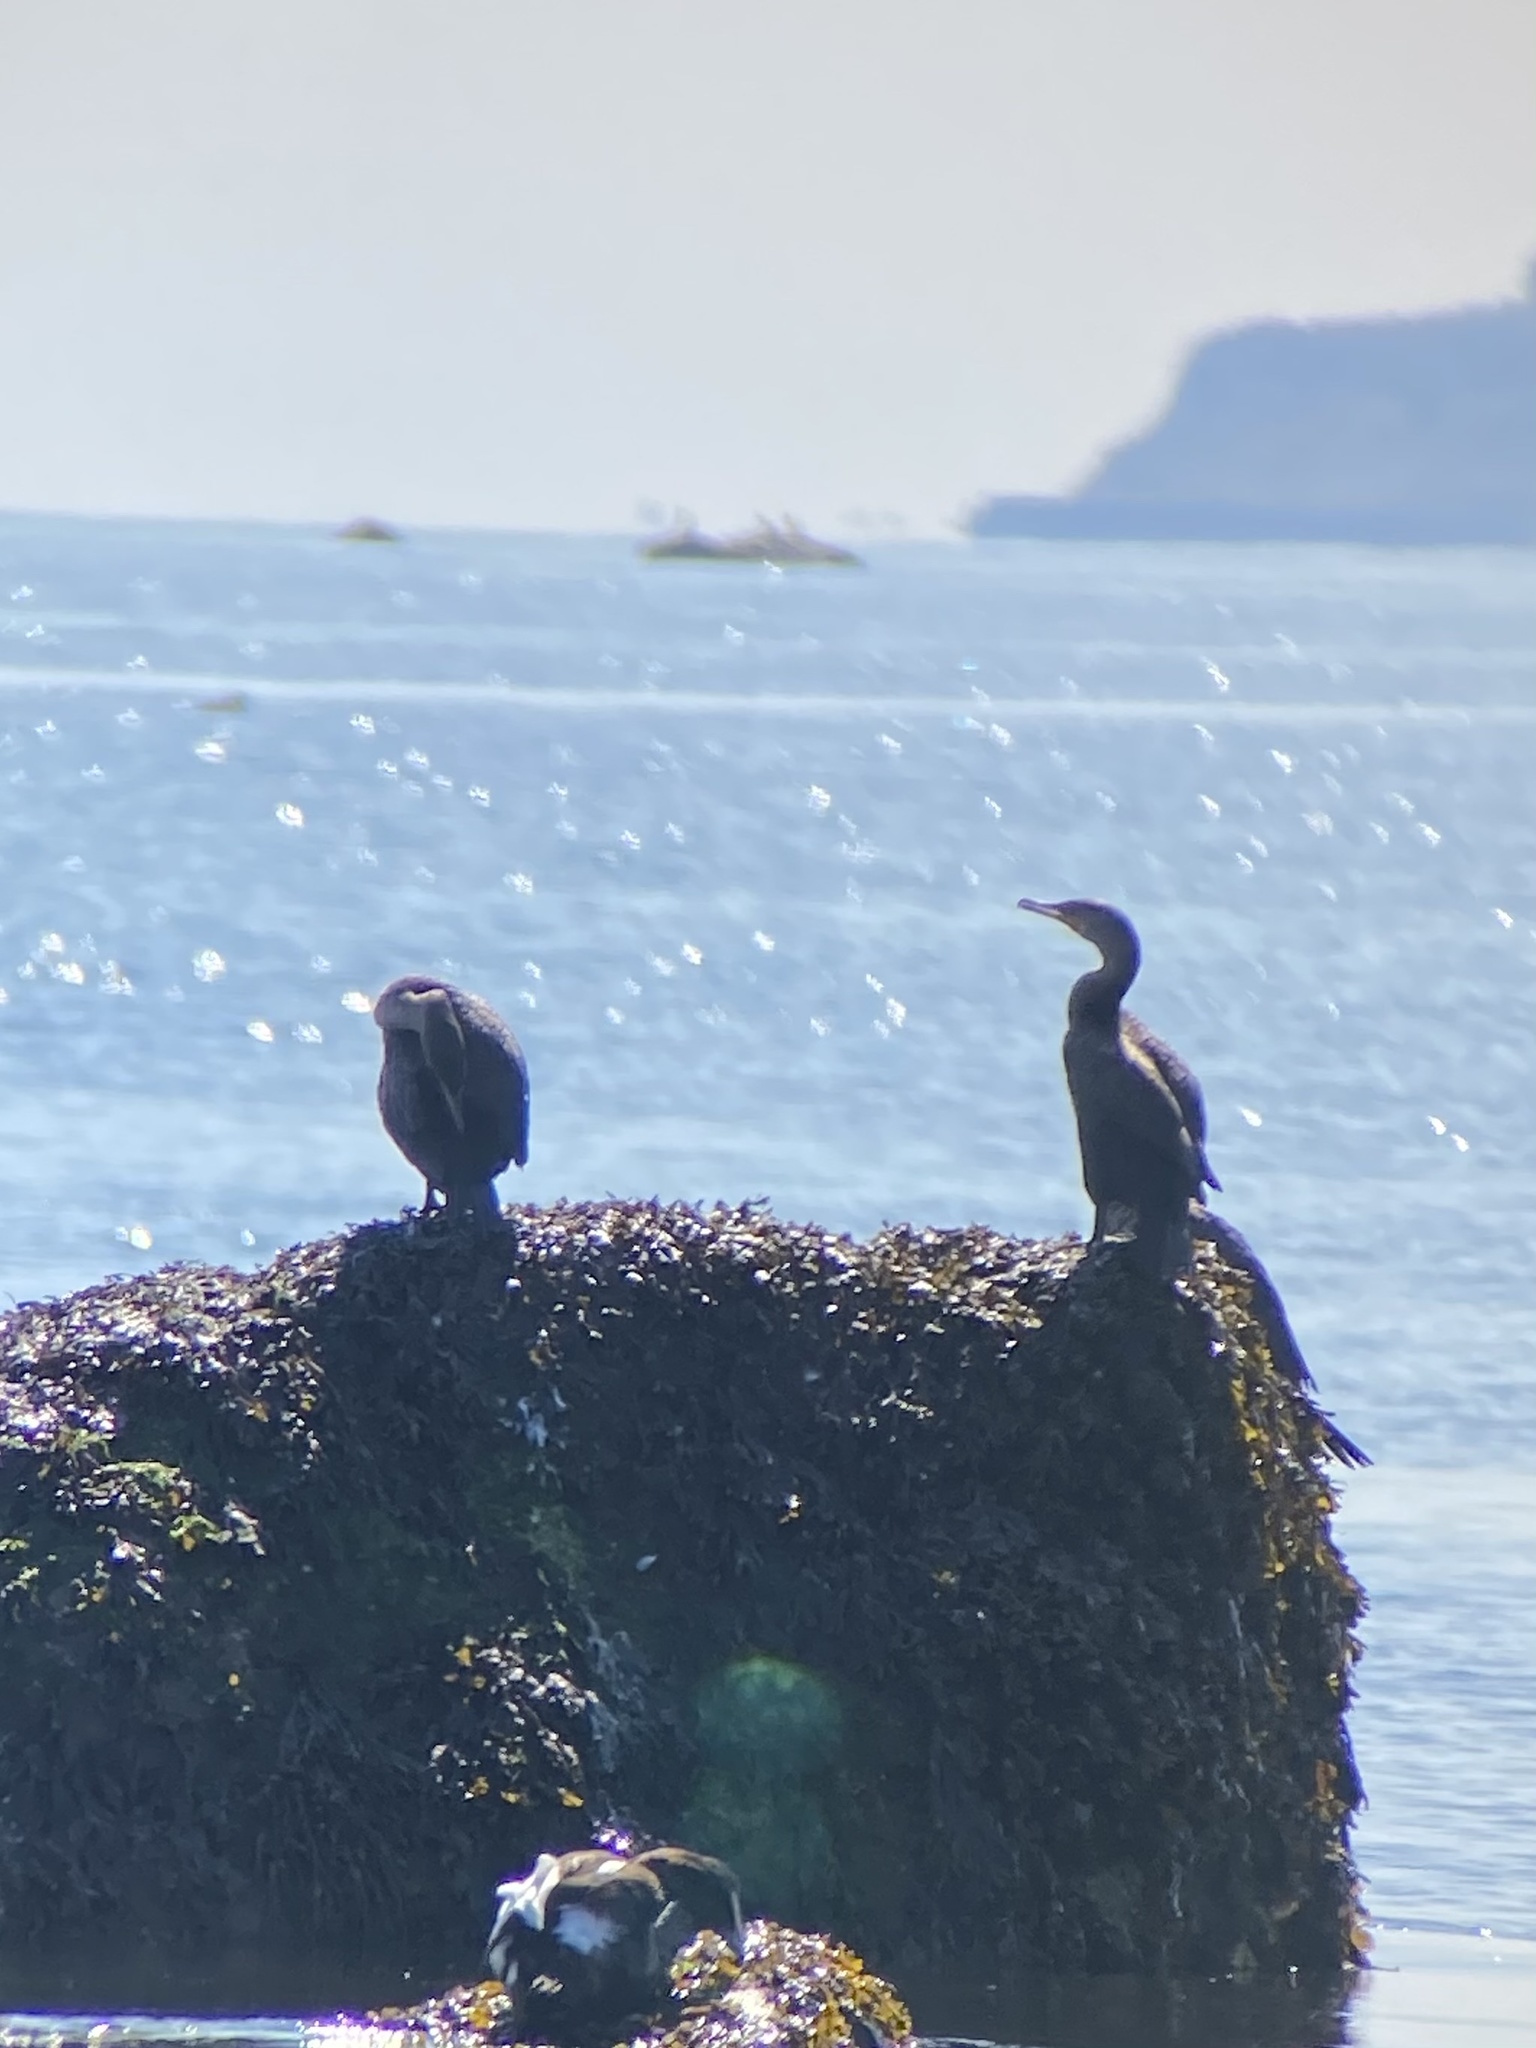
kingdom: Animalia
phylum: Chordata
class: Aves
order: Suliformes
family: Phalacrocoracidae
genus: Phalacrocorax
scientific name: Phalacrocorax auritus
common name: Double-crested cormorant
